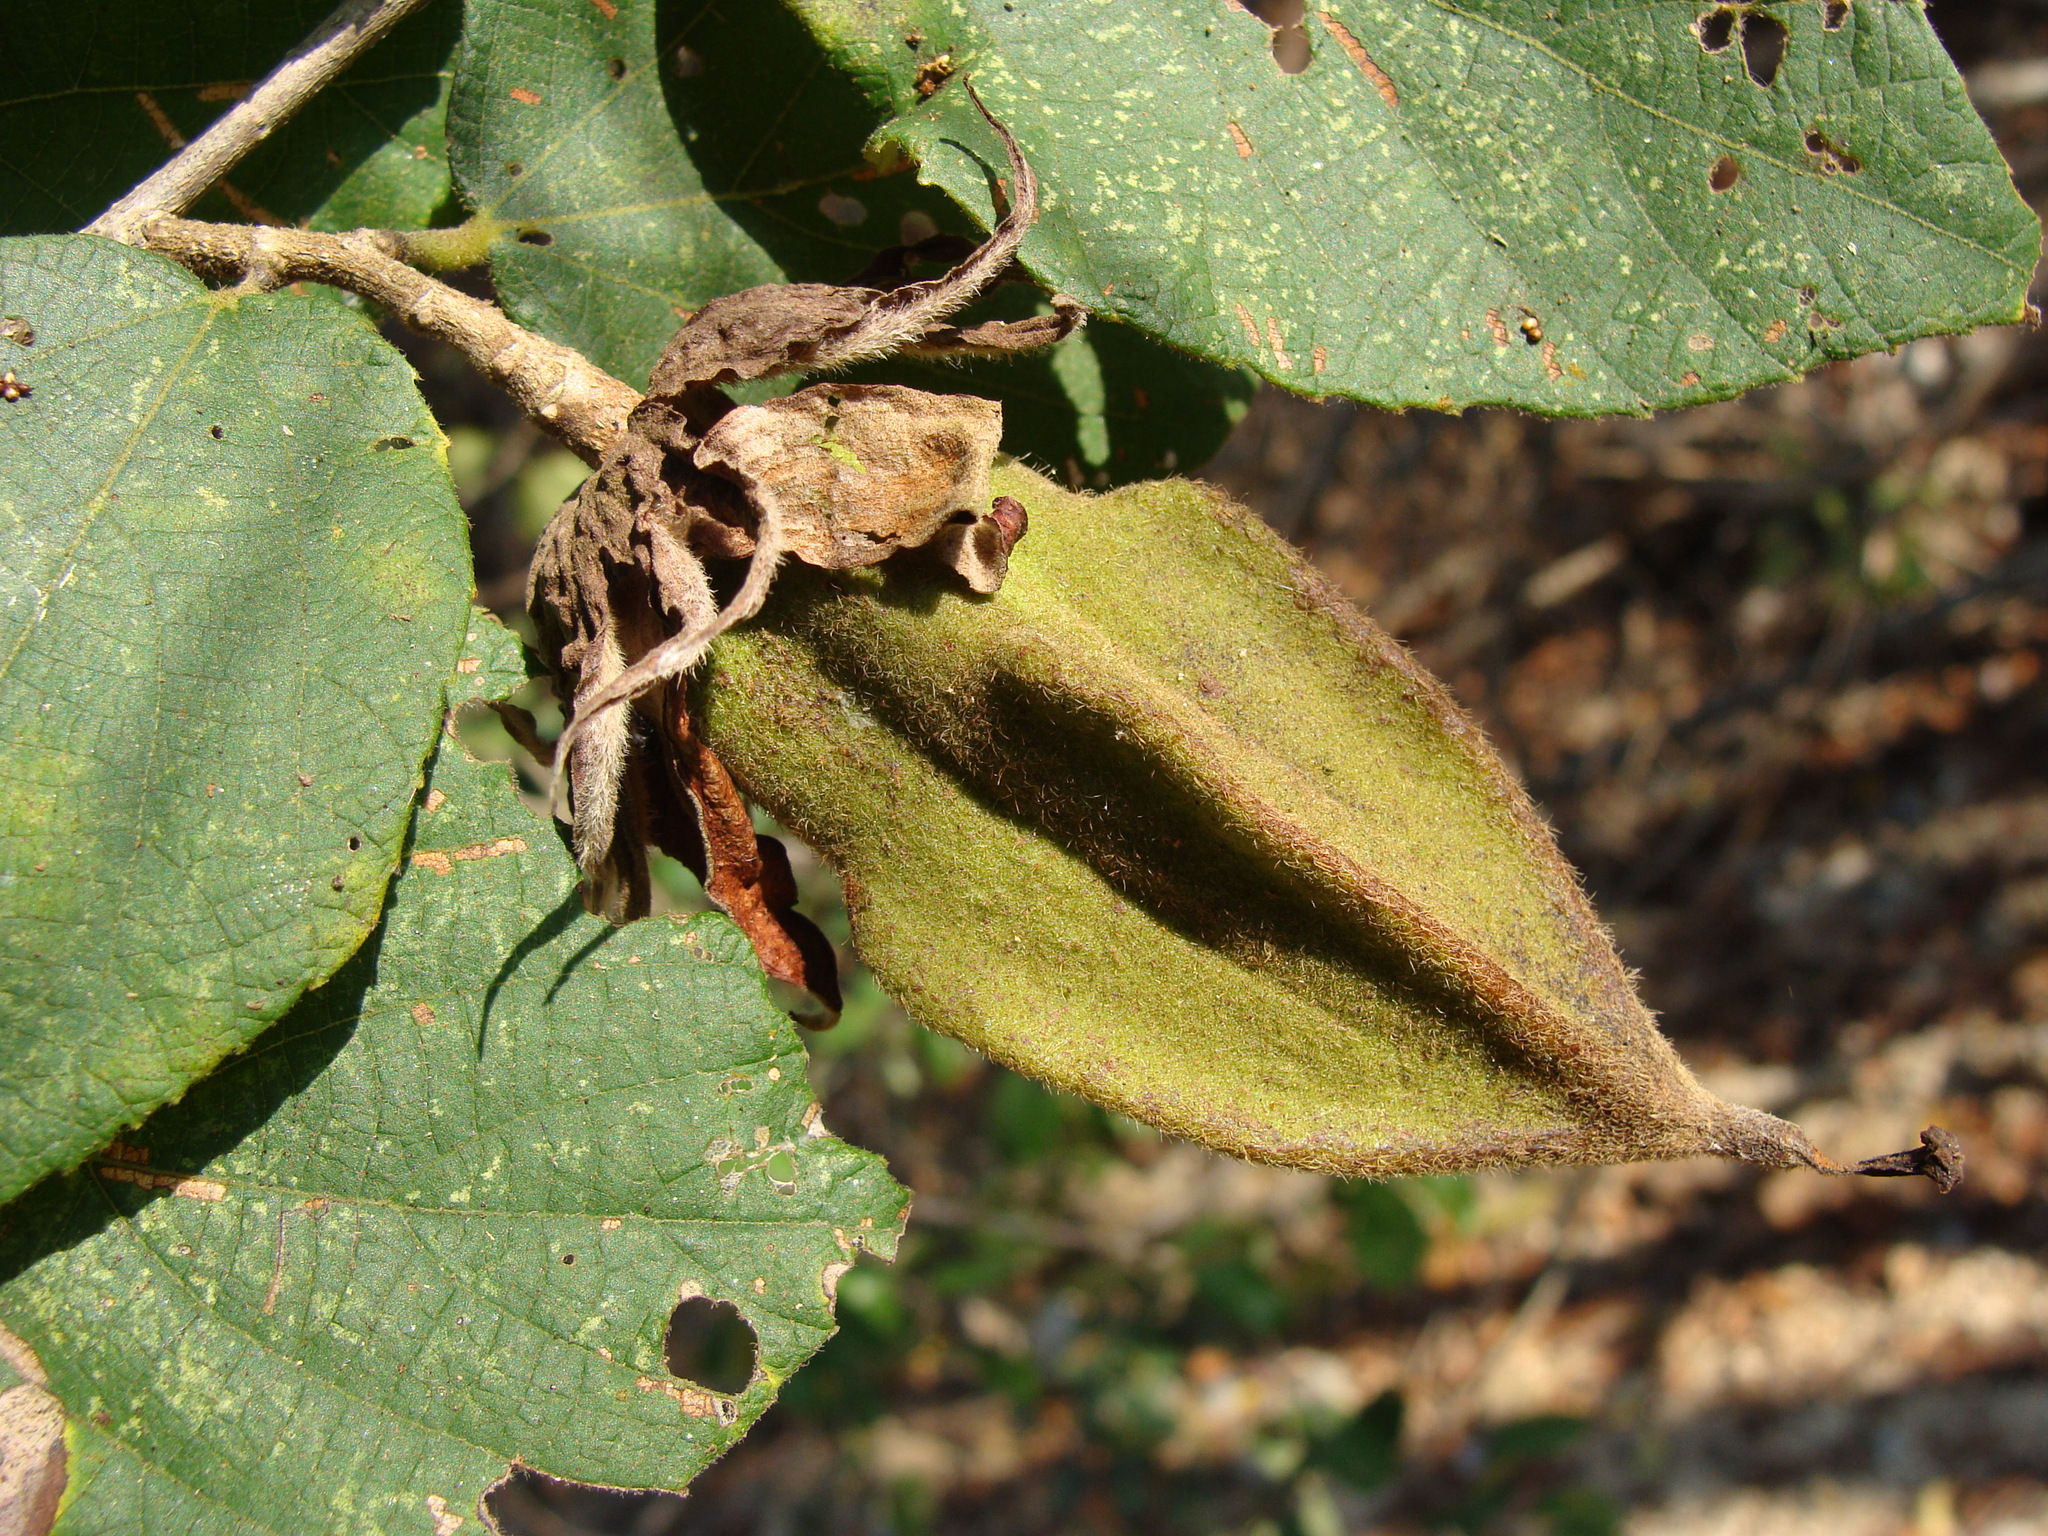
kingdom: Plantae
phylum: Tracheophyta
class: Magnoliopsida
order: Malvales
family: Malvaceae
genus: Luehea
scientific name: Luehea candida
